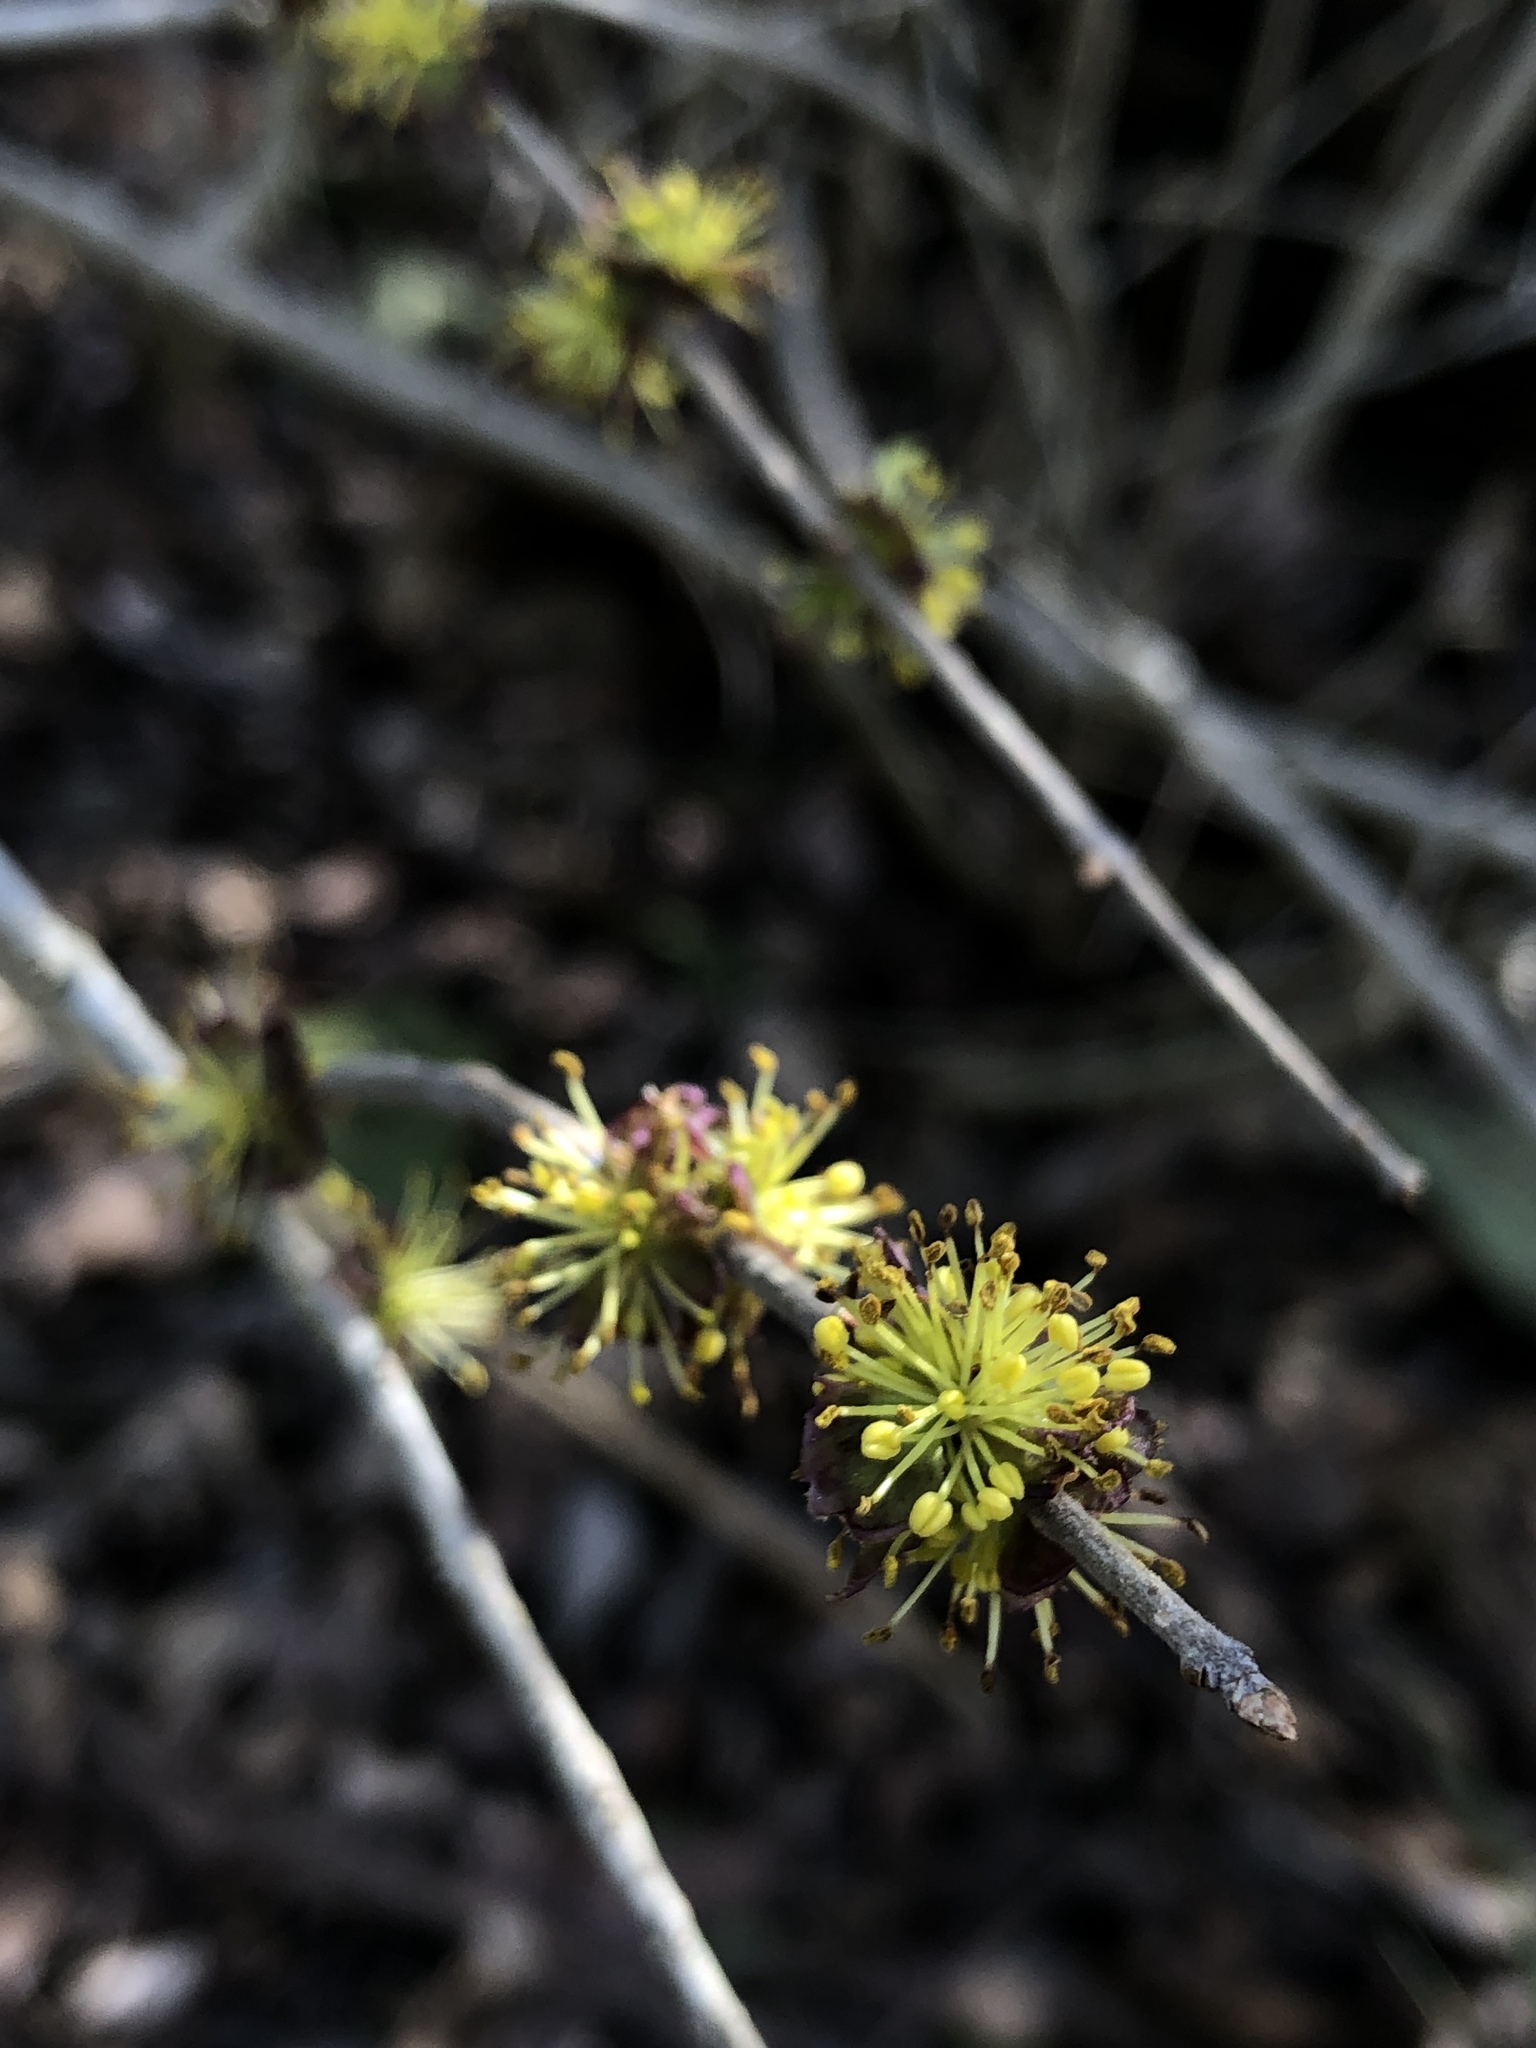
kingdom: Plantae
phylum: Tracheophyta
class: Magnoliopsida
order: Lamiales
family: Oleaceae
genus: Forestiera
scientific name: Forestiera pubescens
